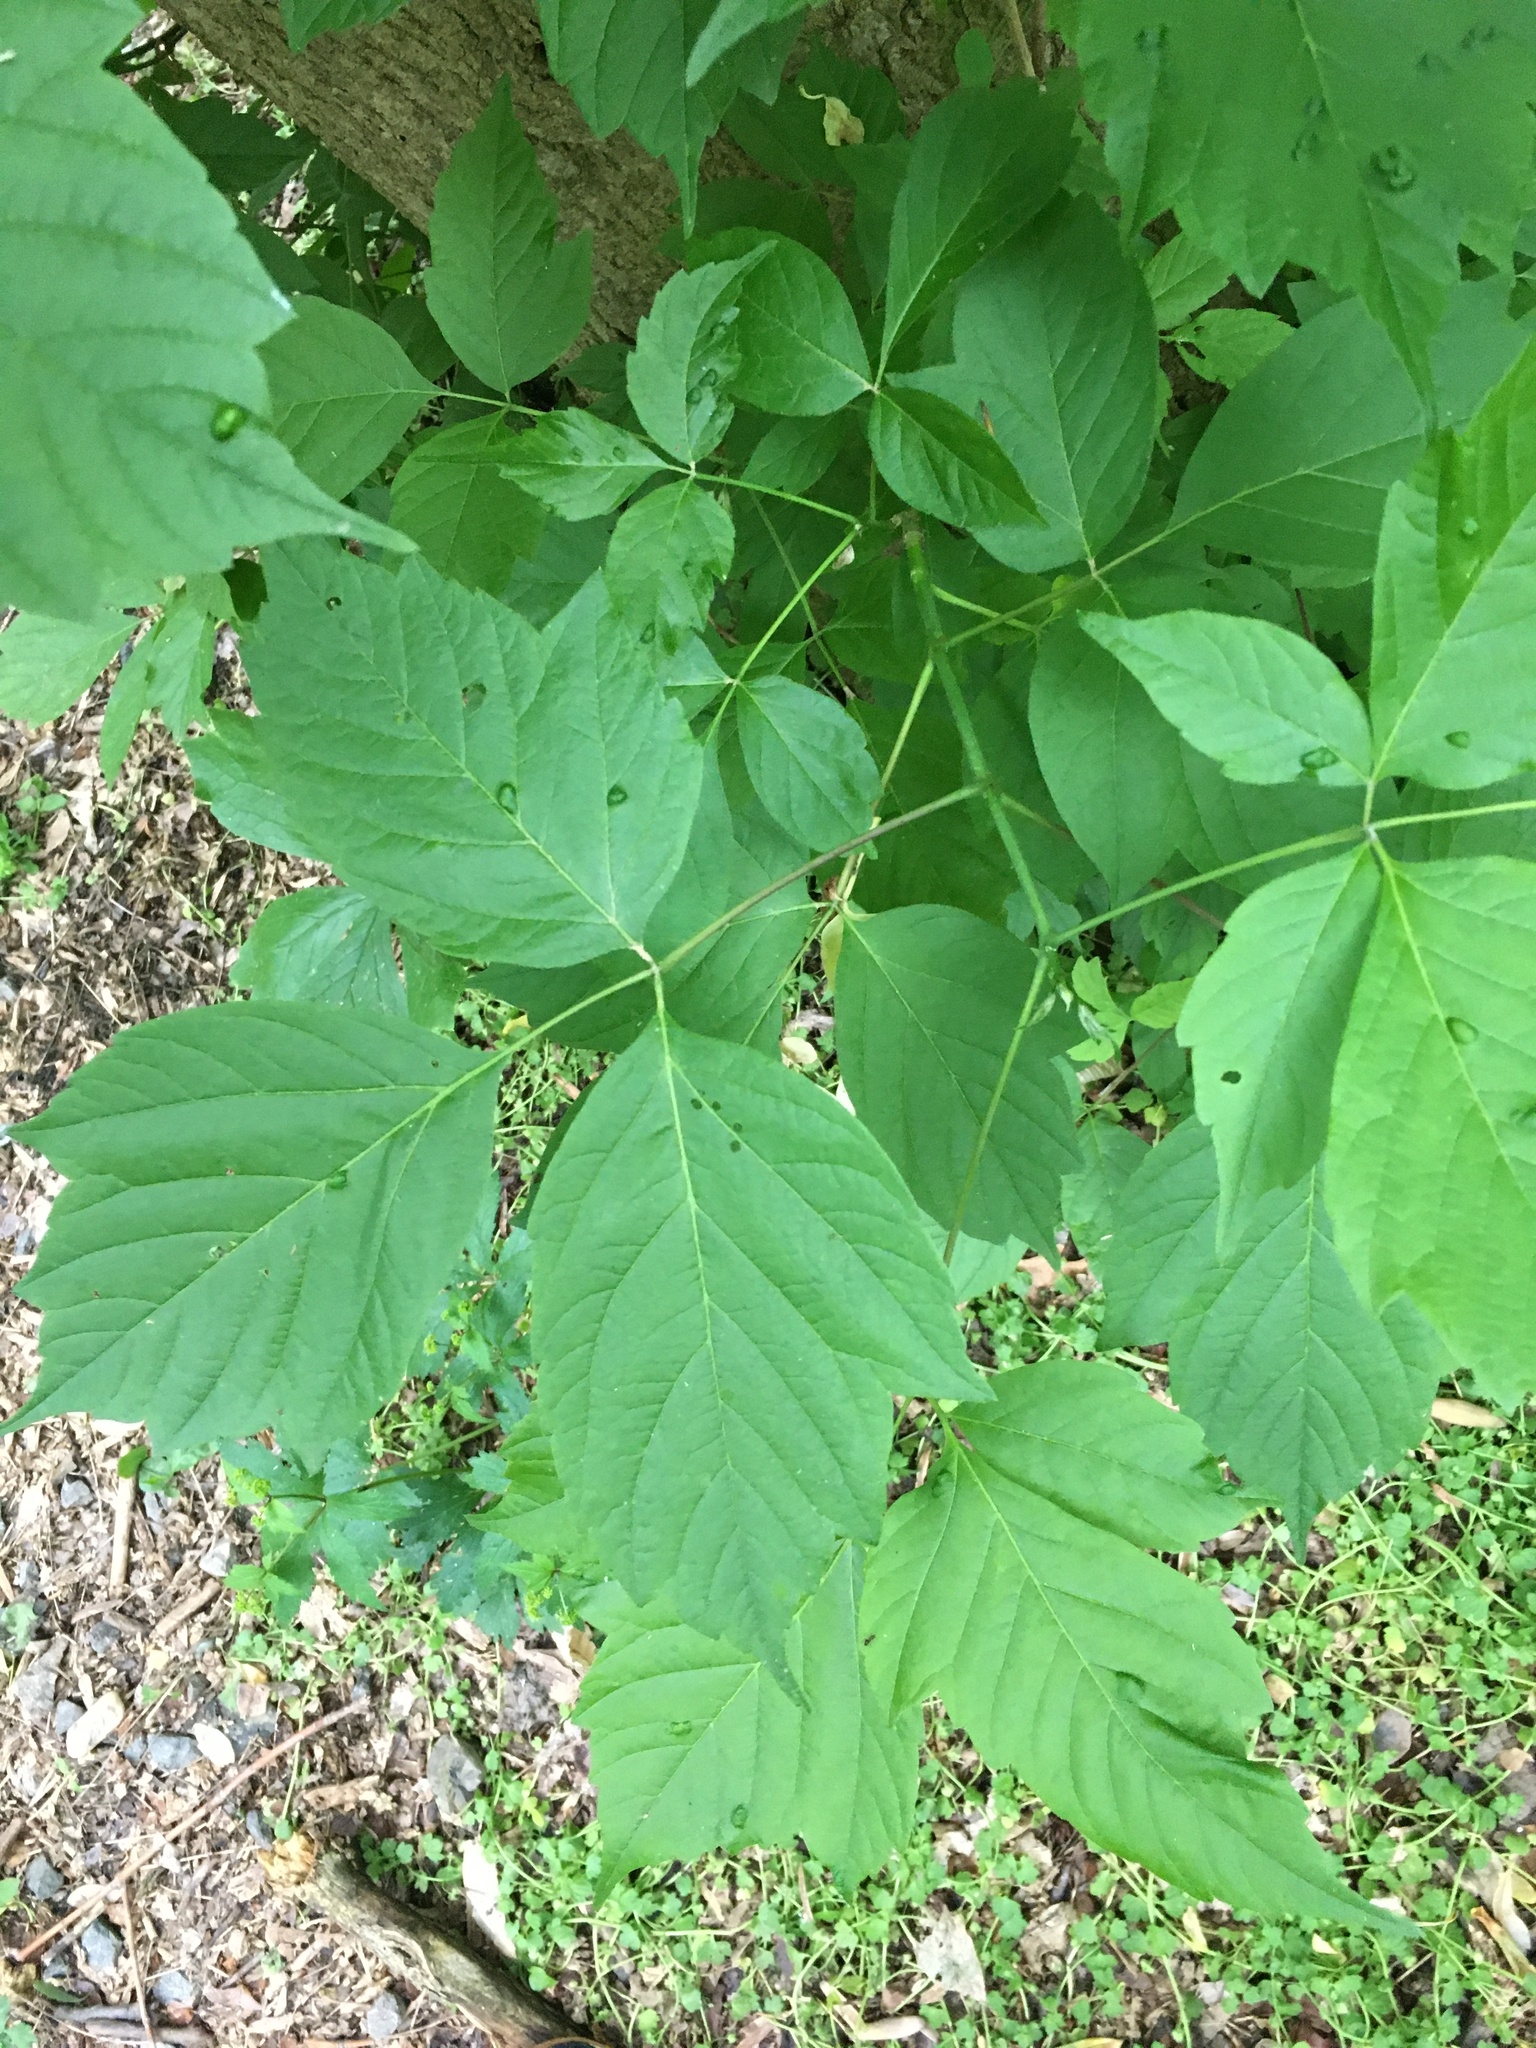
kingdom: Plantae
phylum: Tracheophyta
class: Magnoliopsida
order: Sapindales
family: Sapindaceae
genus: Acer
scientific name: Acer negundo
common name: Ashleaf maple
